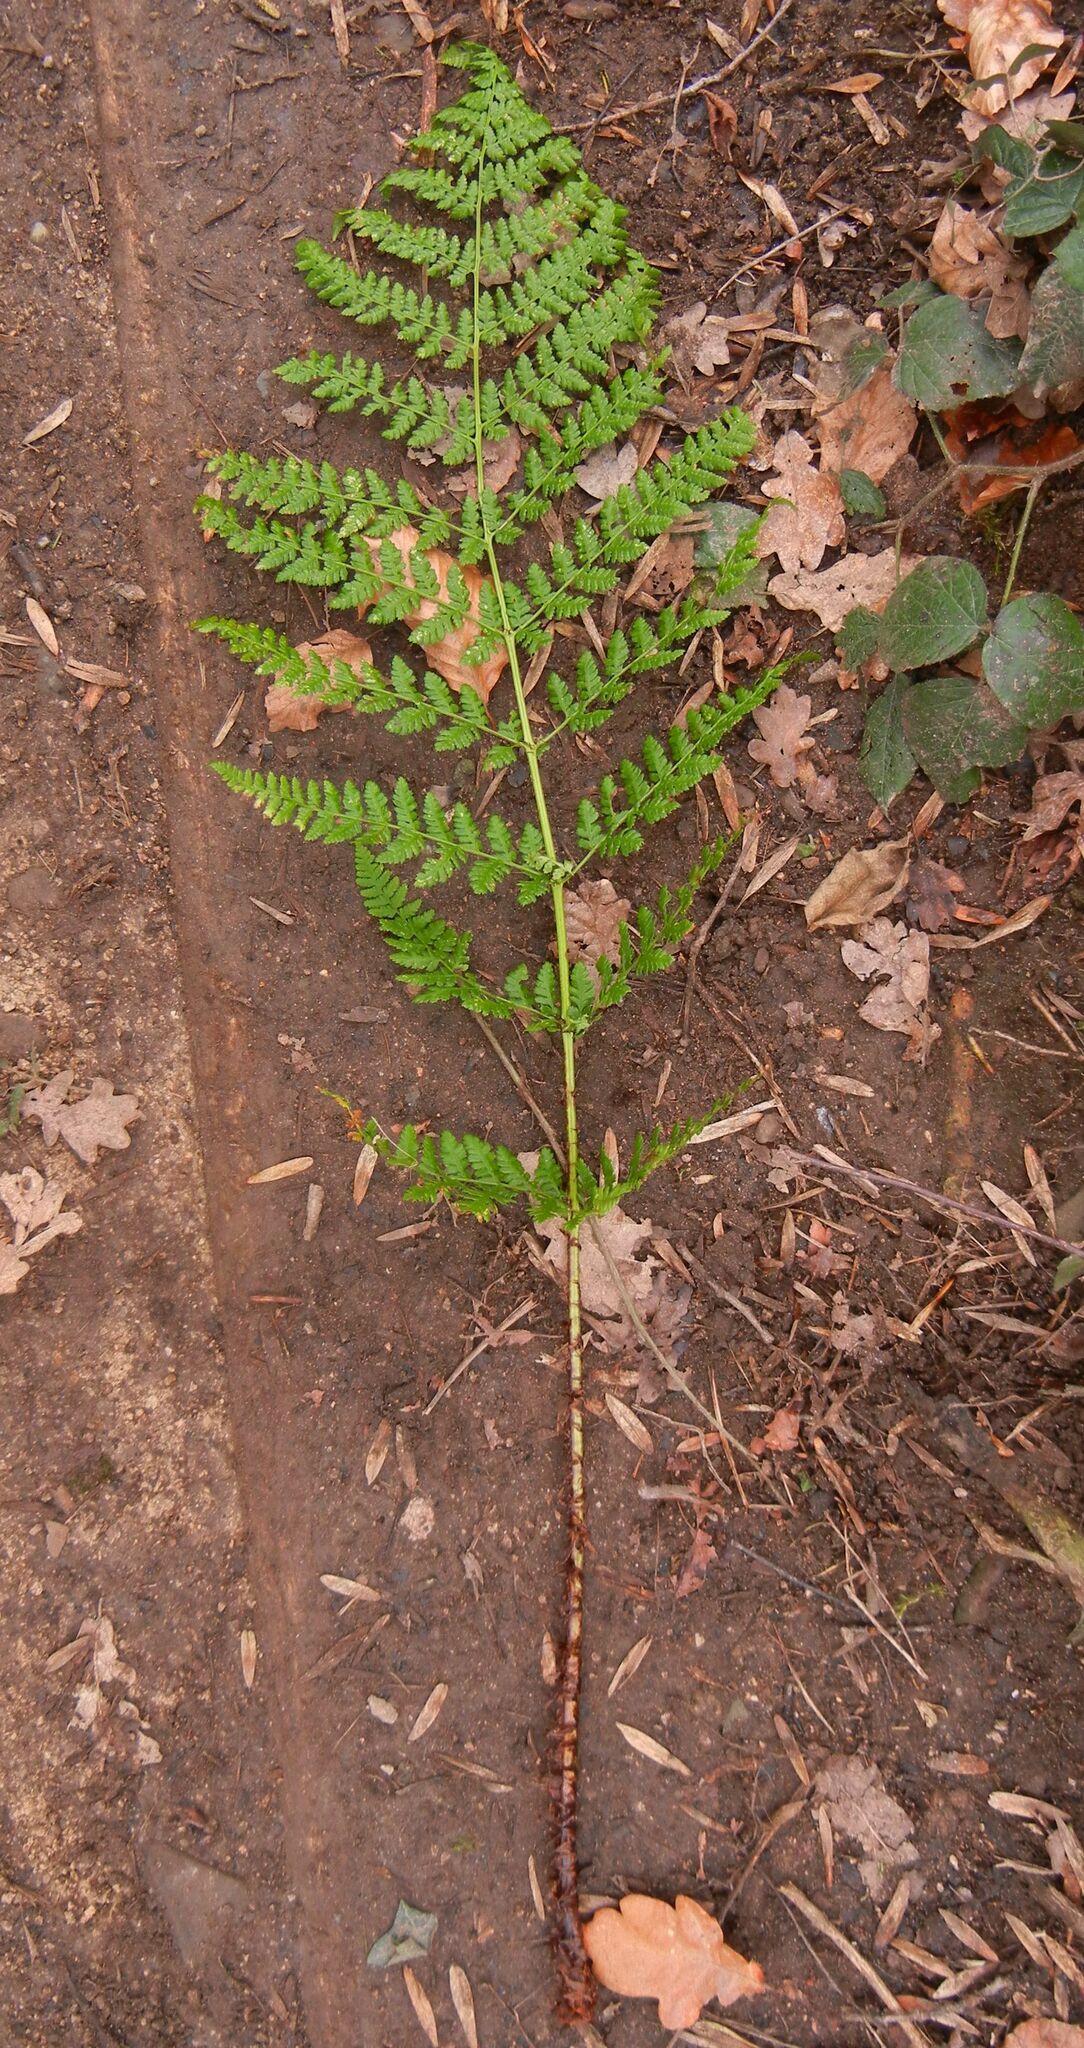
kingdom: Plantae
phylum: Tracheophyta
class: Polypodiopsida
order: Polypodiales
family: Dryopteridaceae
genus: Dryopteris
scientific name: Dryopteris dilatata
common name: Broad buckler-fern
